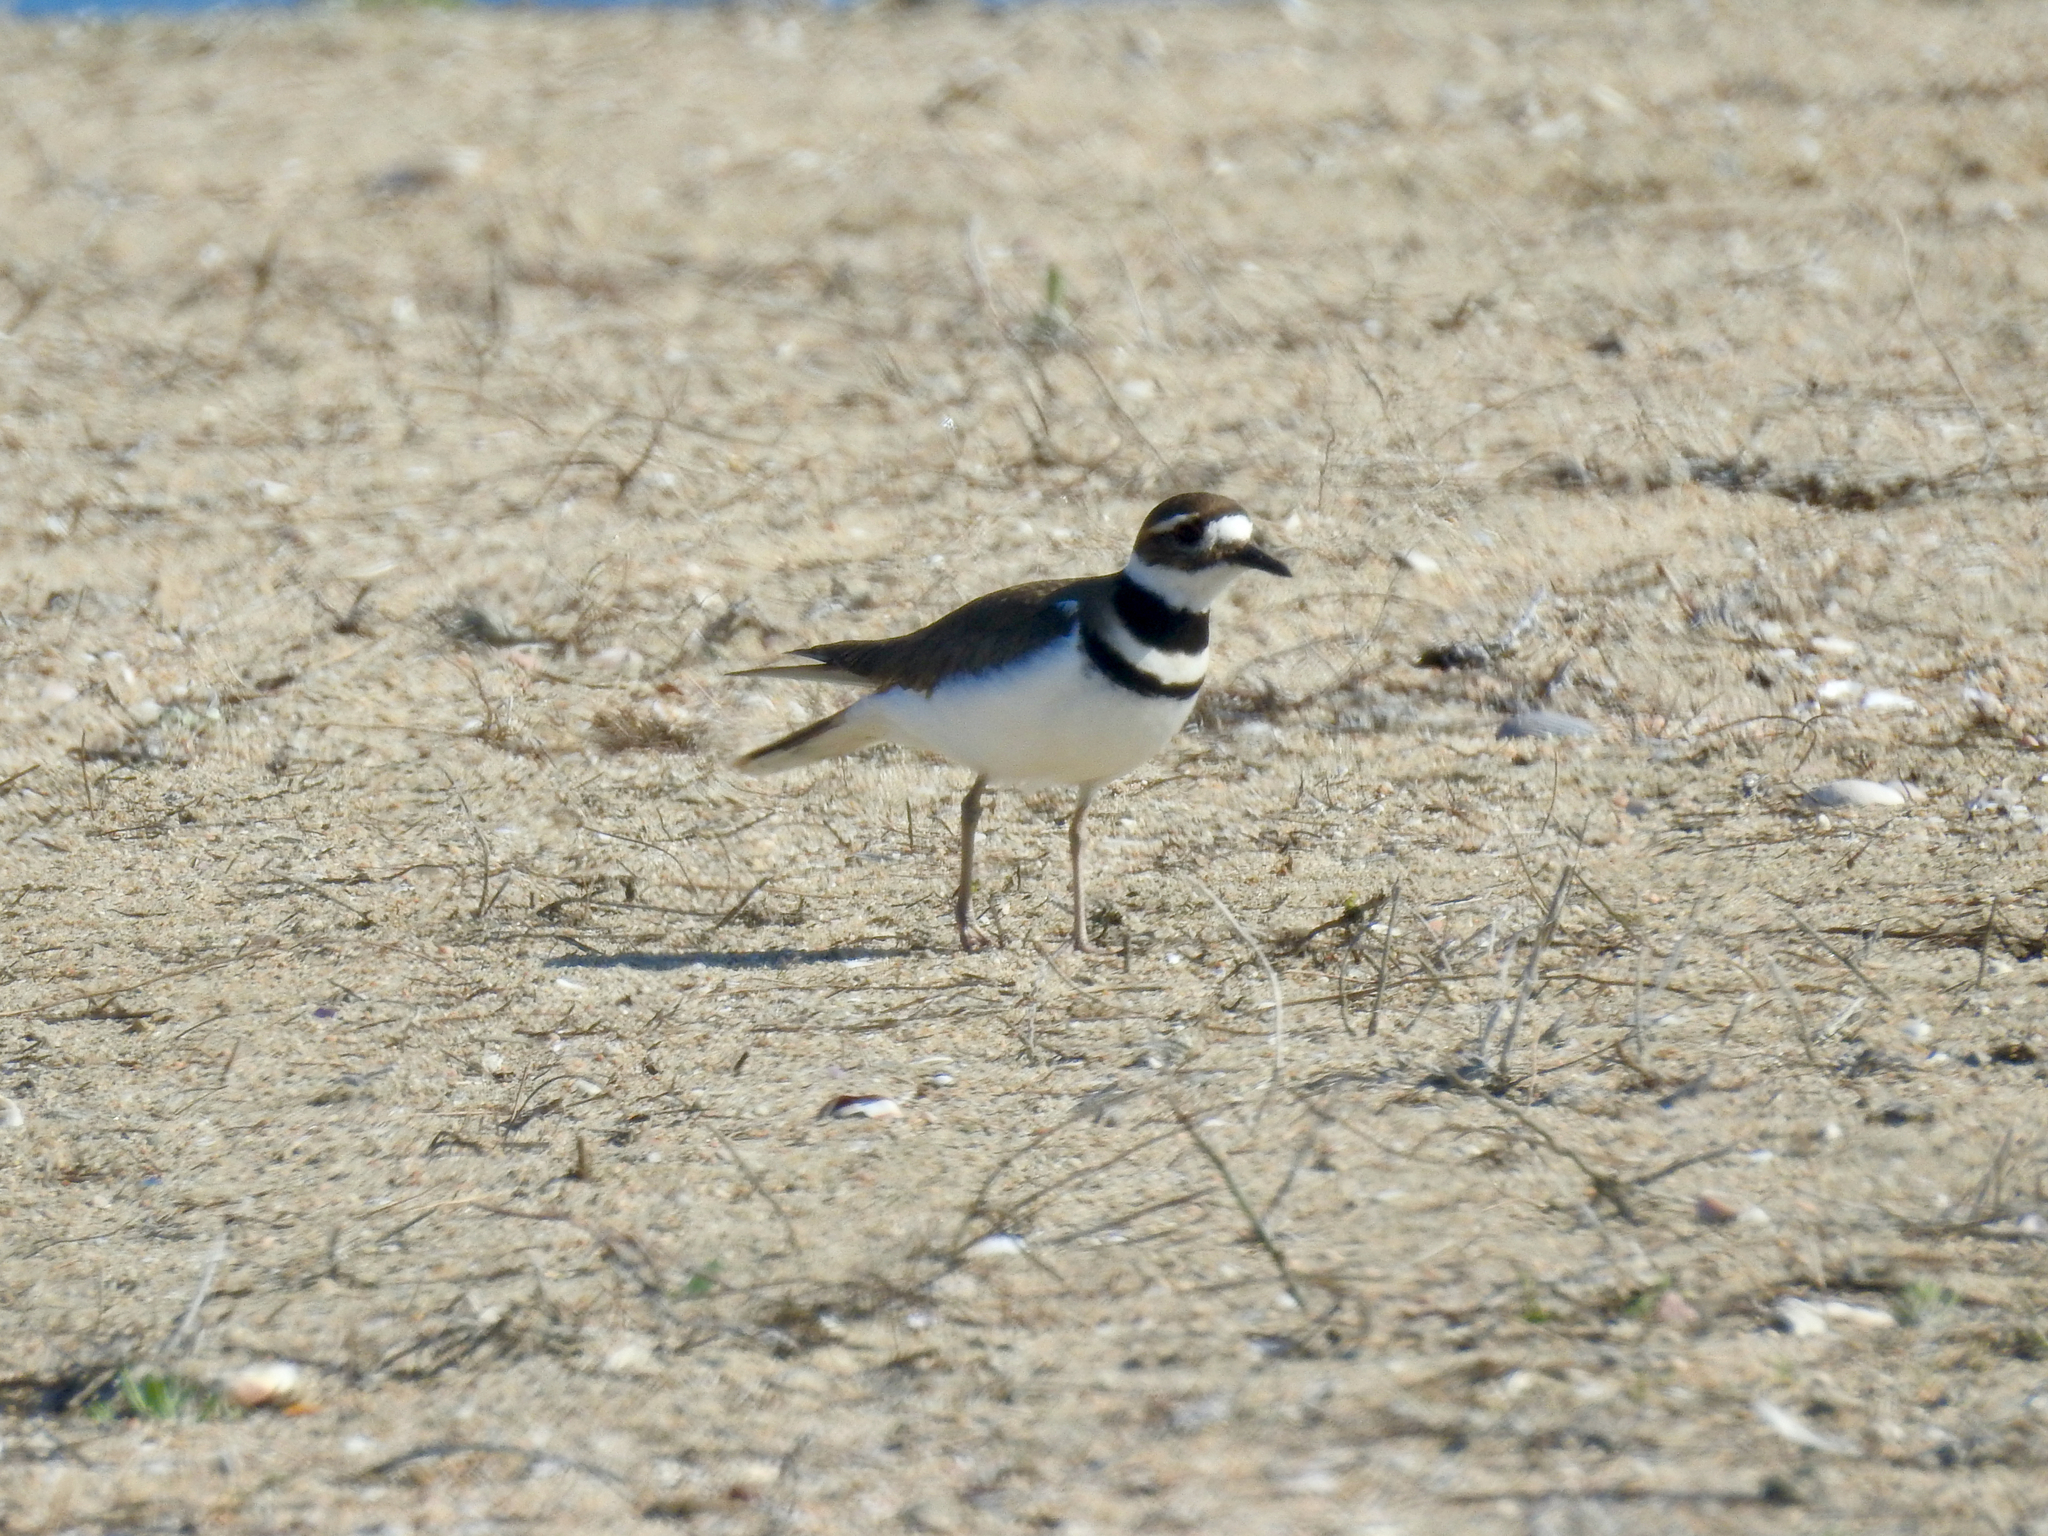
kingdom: Animalia
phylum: Chordata
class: Aves
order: Charadriiformes
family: Charadriidae
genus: Charadrius
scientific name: Charadrius vociferus
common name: Killdeer
